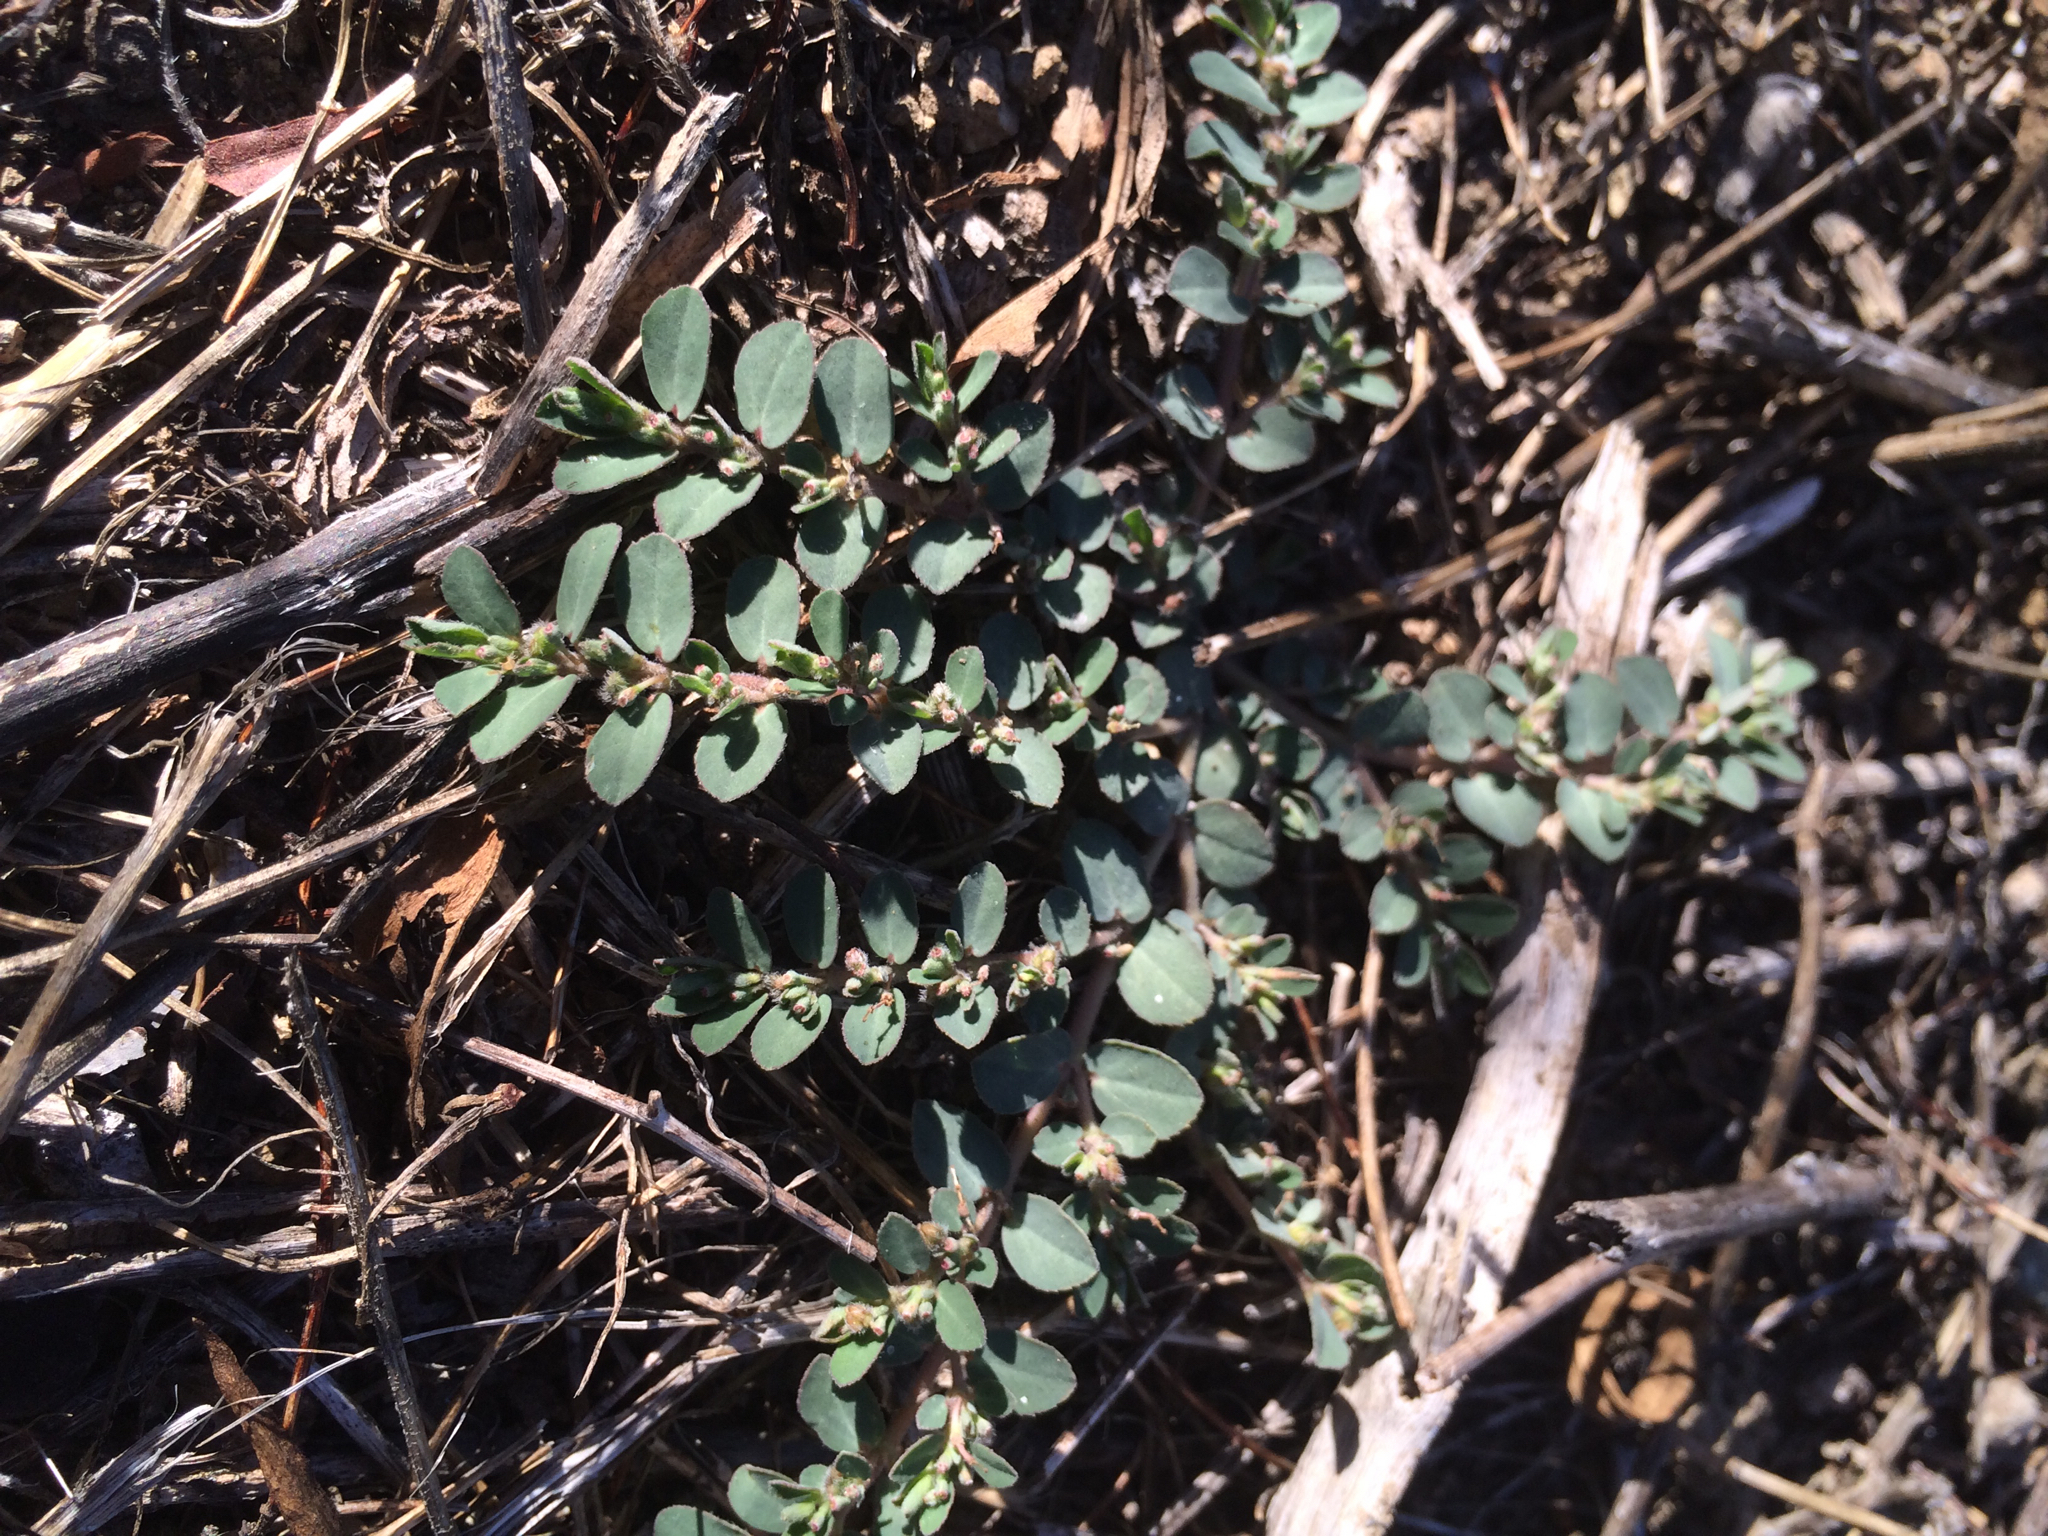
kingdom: Plantae
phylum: Tracheophyta
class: Magnoliopsida
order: Malpighiales
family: Euphorbiaceae
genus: Euphorbia
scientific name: Euphorbia prostrata
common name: Prostrate sandmat
